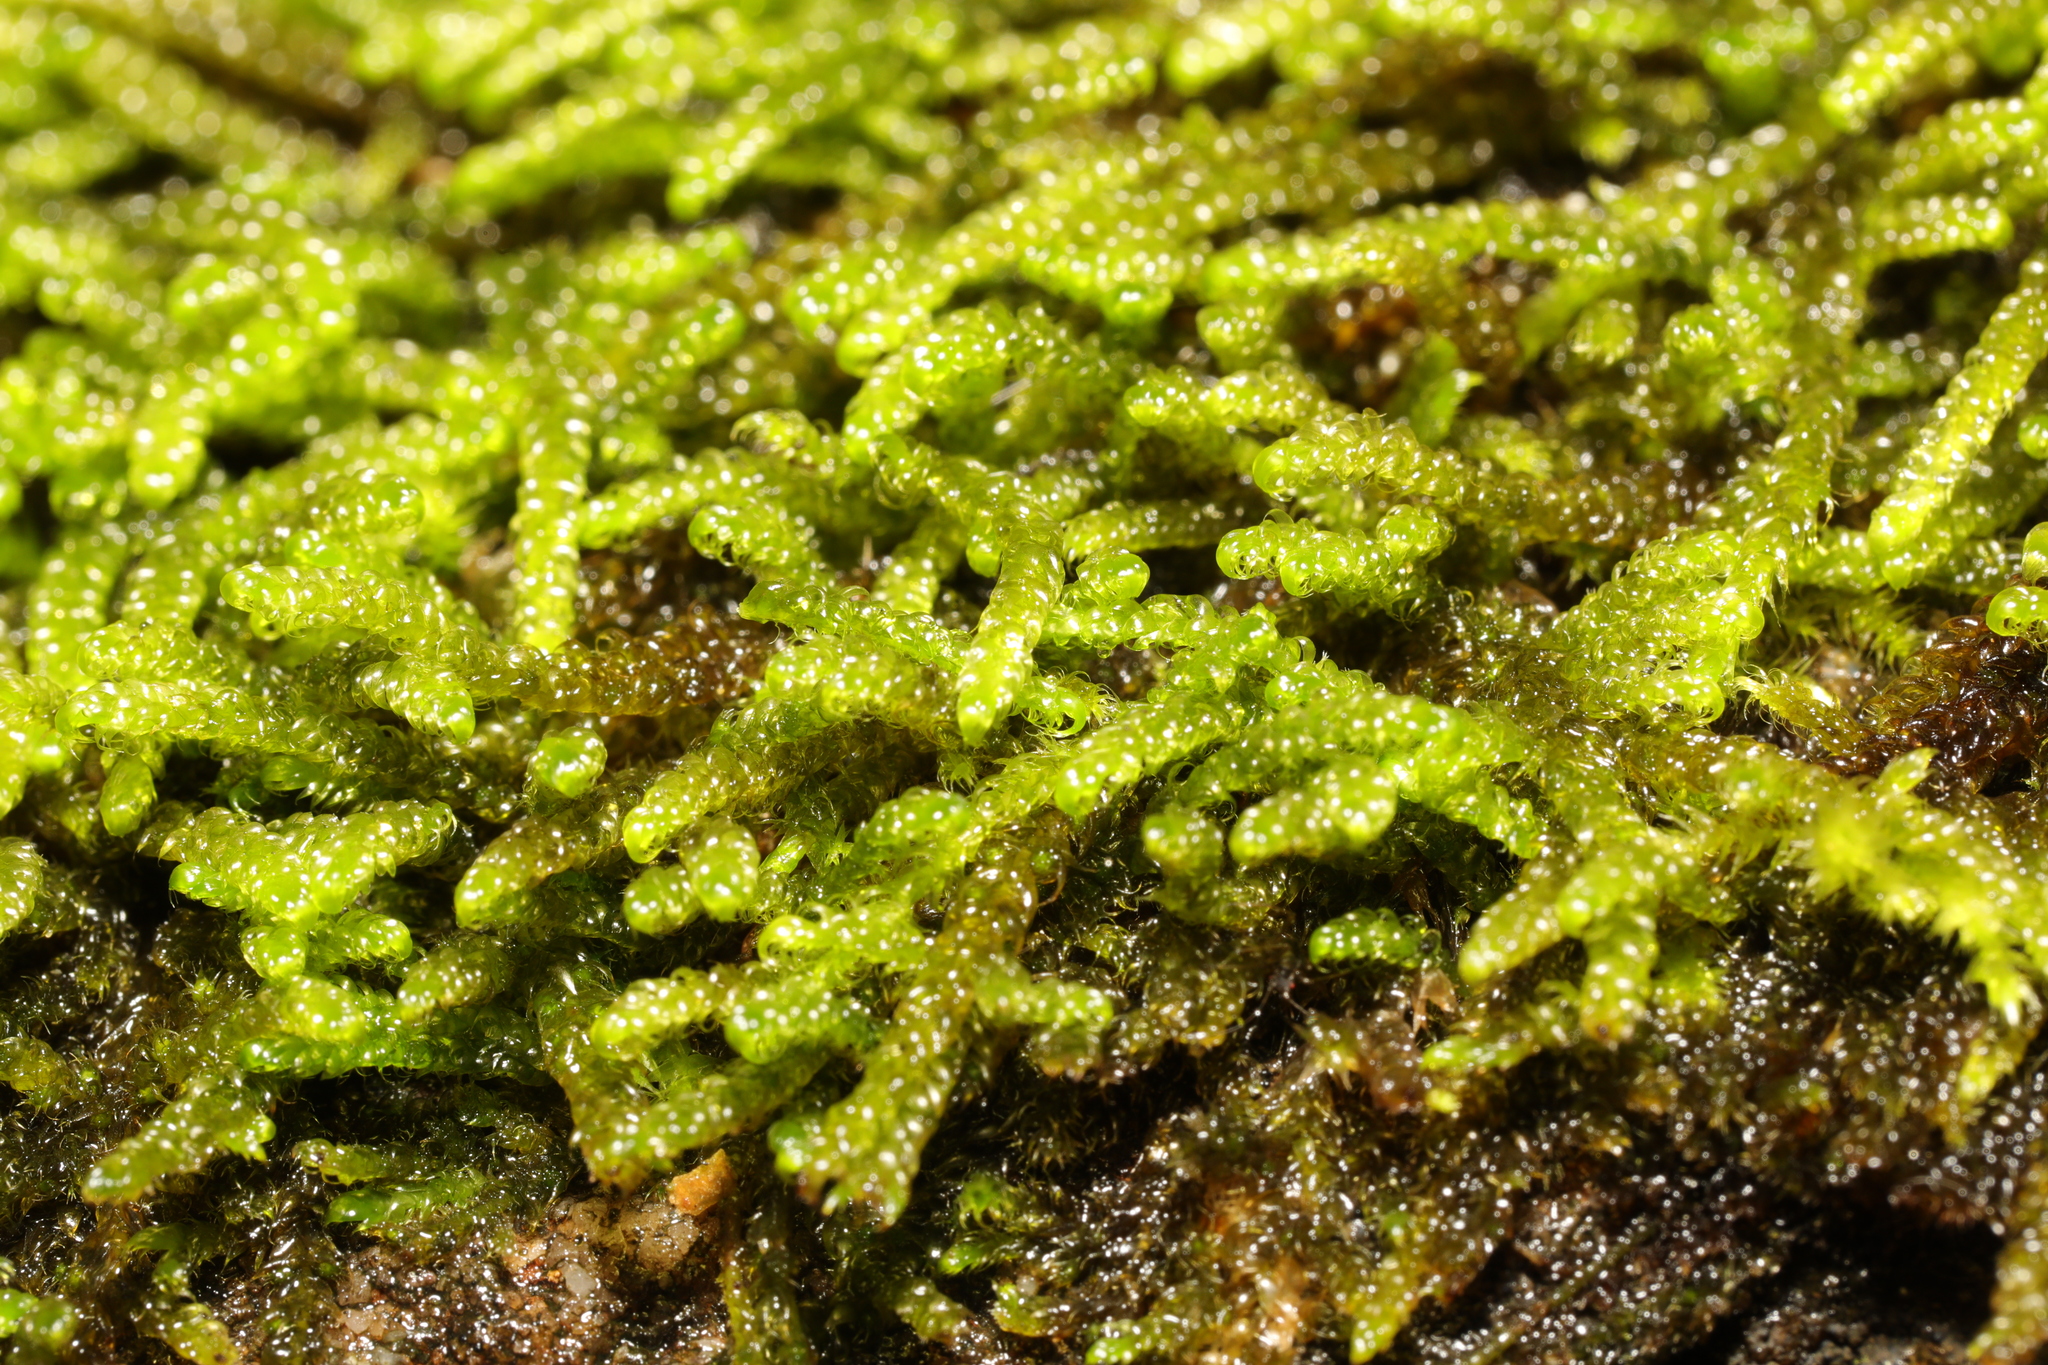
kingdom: Plantae
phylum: Bryophyta
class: Bryopsida
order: Hypnales
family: Scorpidiaceae
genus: Sanionia
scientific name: Sanionia uncinata
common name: Sickle moss
